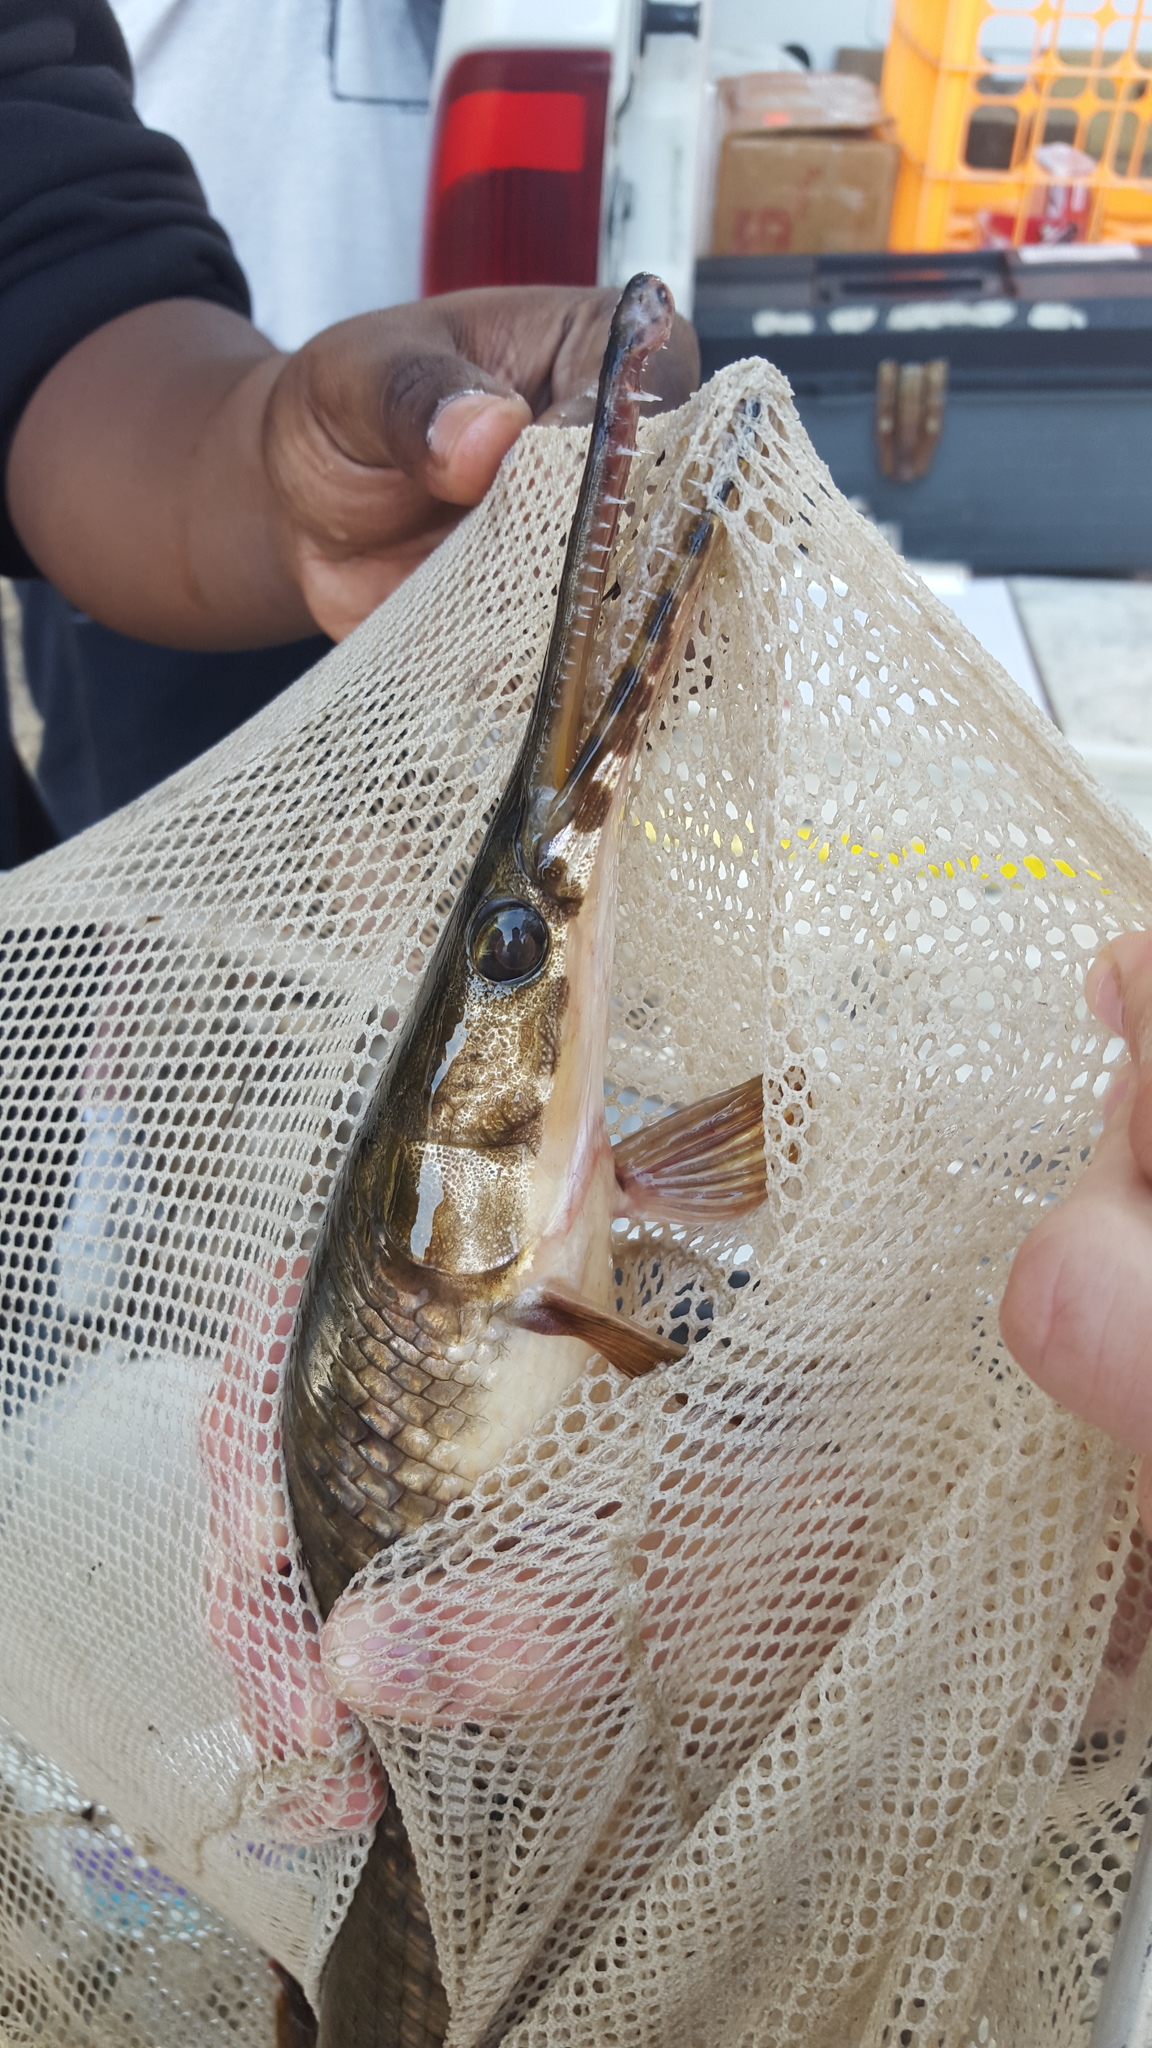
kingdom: Animalia
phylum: Chordata
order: Lepisosteiformes
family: Lepisosteidae
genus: Lepisosteus
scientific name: Lepisosteus platyrhincus
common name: Florida gar
